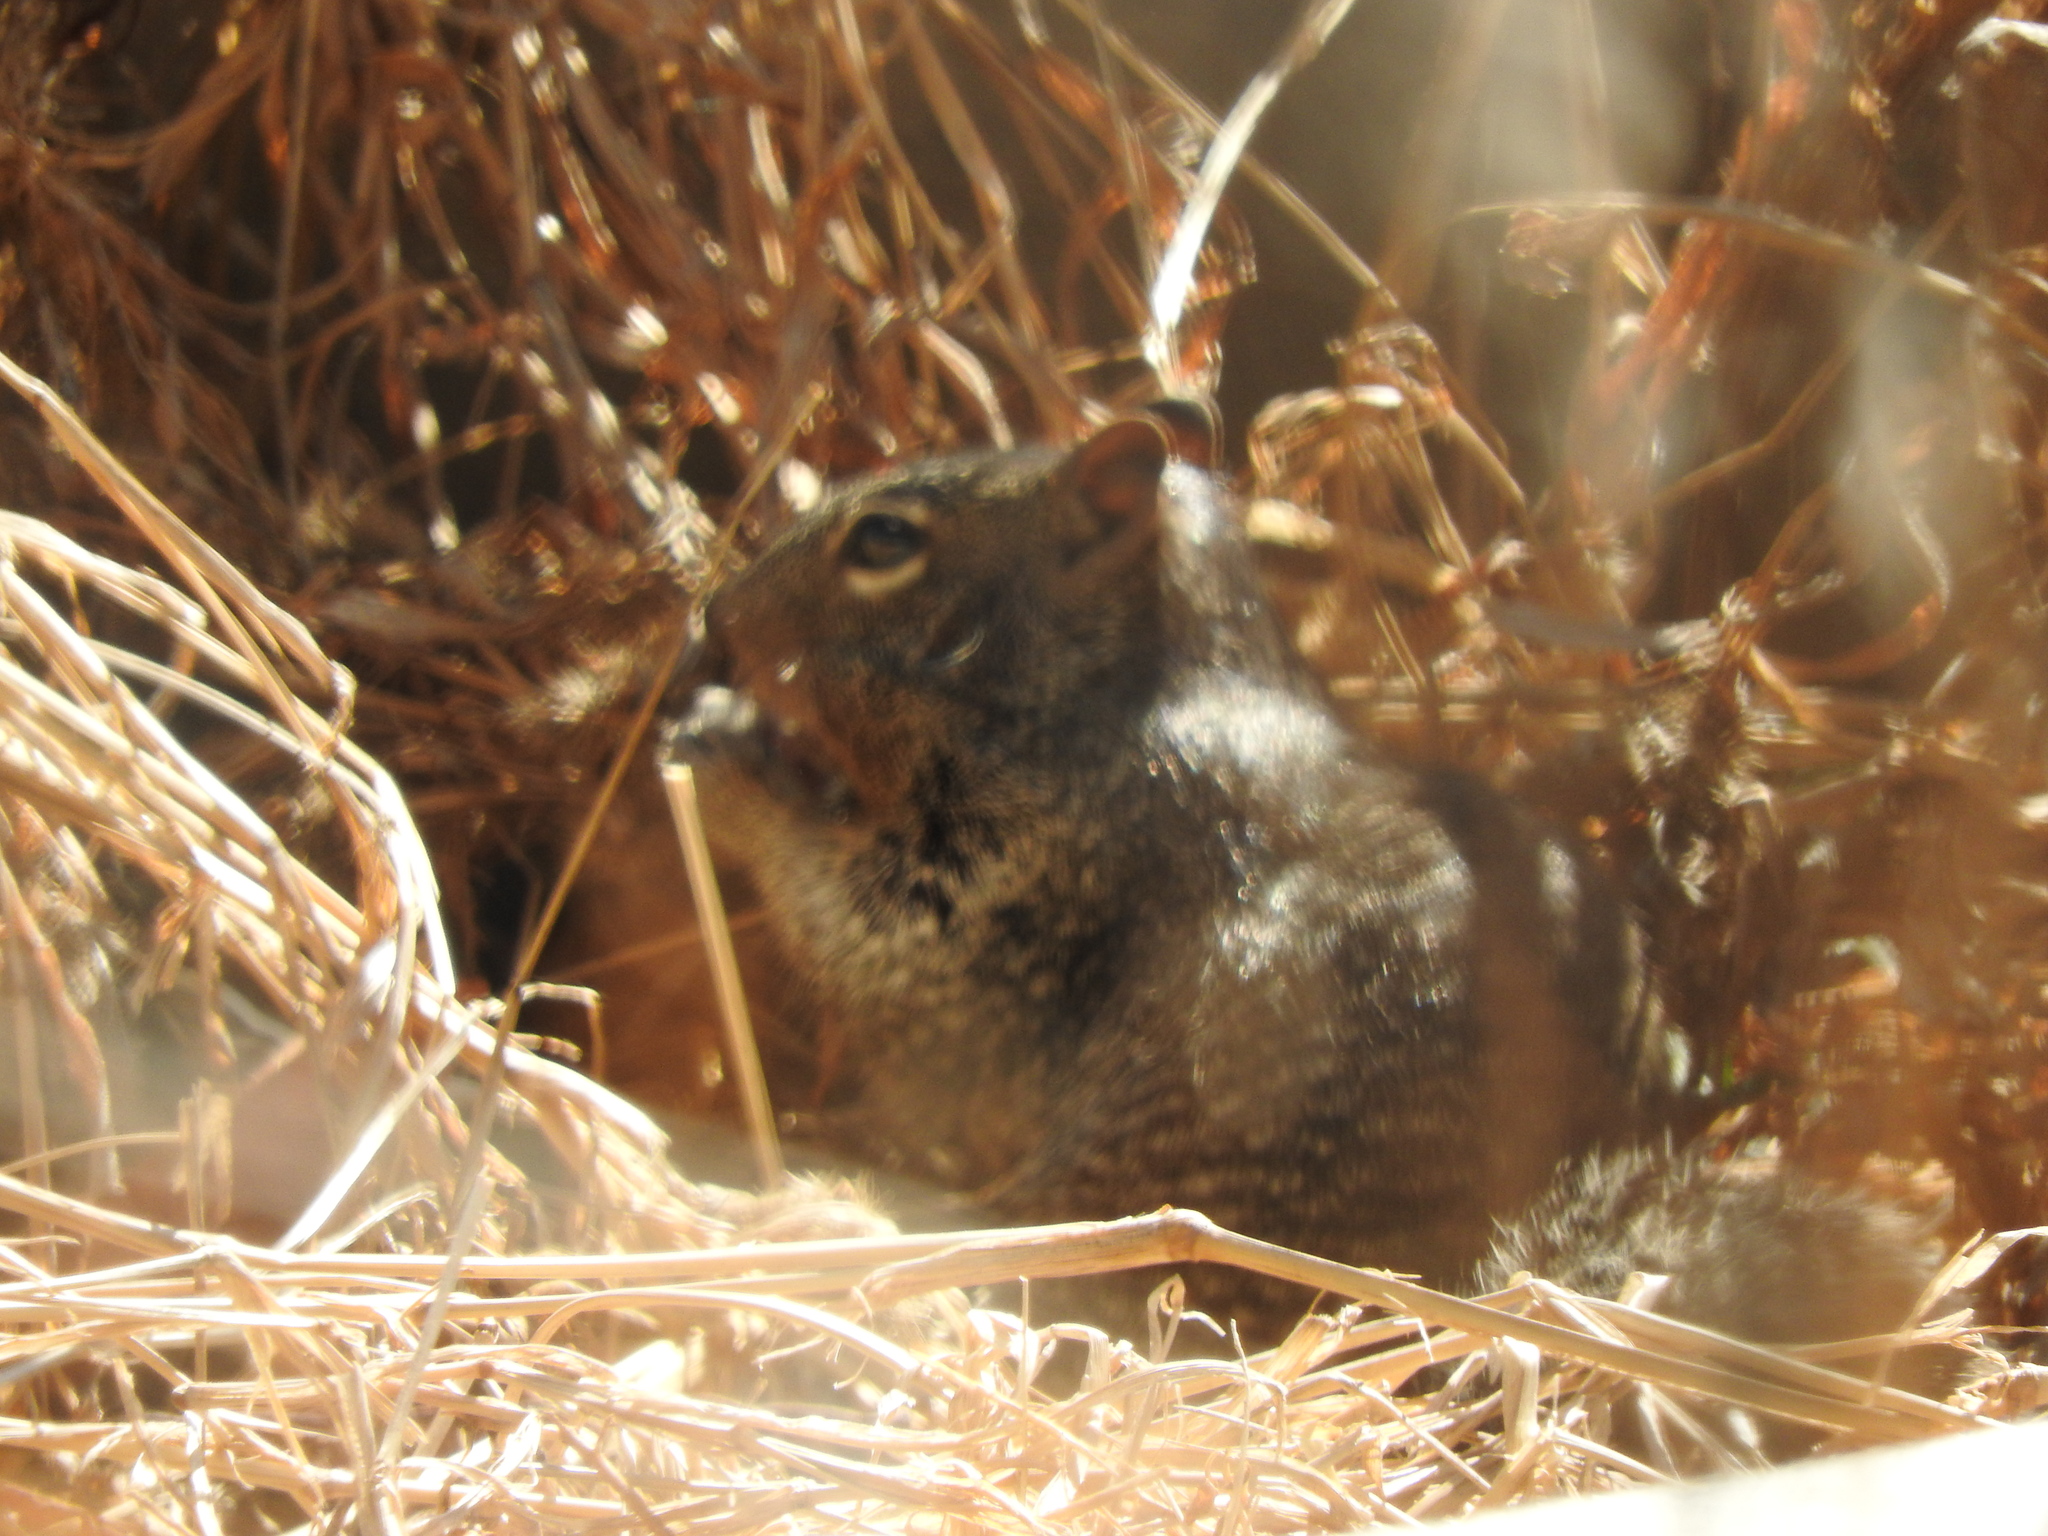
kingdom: Animalia
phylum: Chordata
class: Mammalia
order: Rodentia
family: Sciuridae
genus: Otospermophilus
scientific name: Otospermophilus variegatus
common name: Rock squirrel
